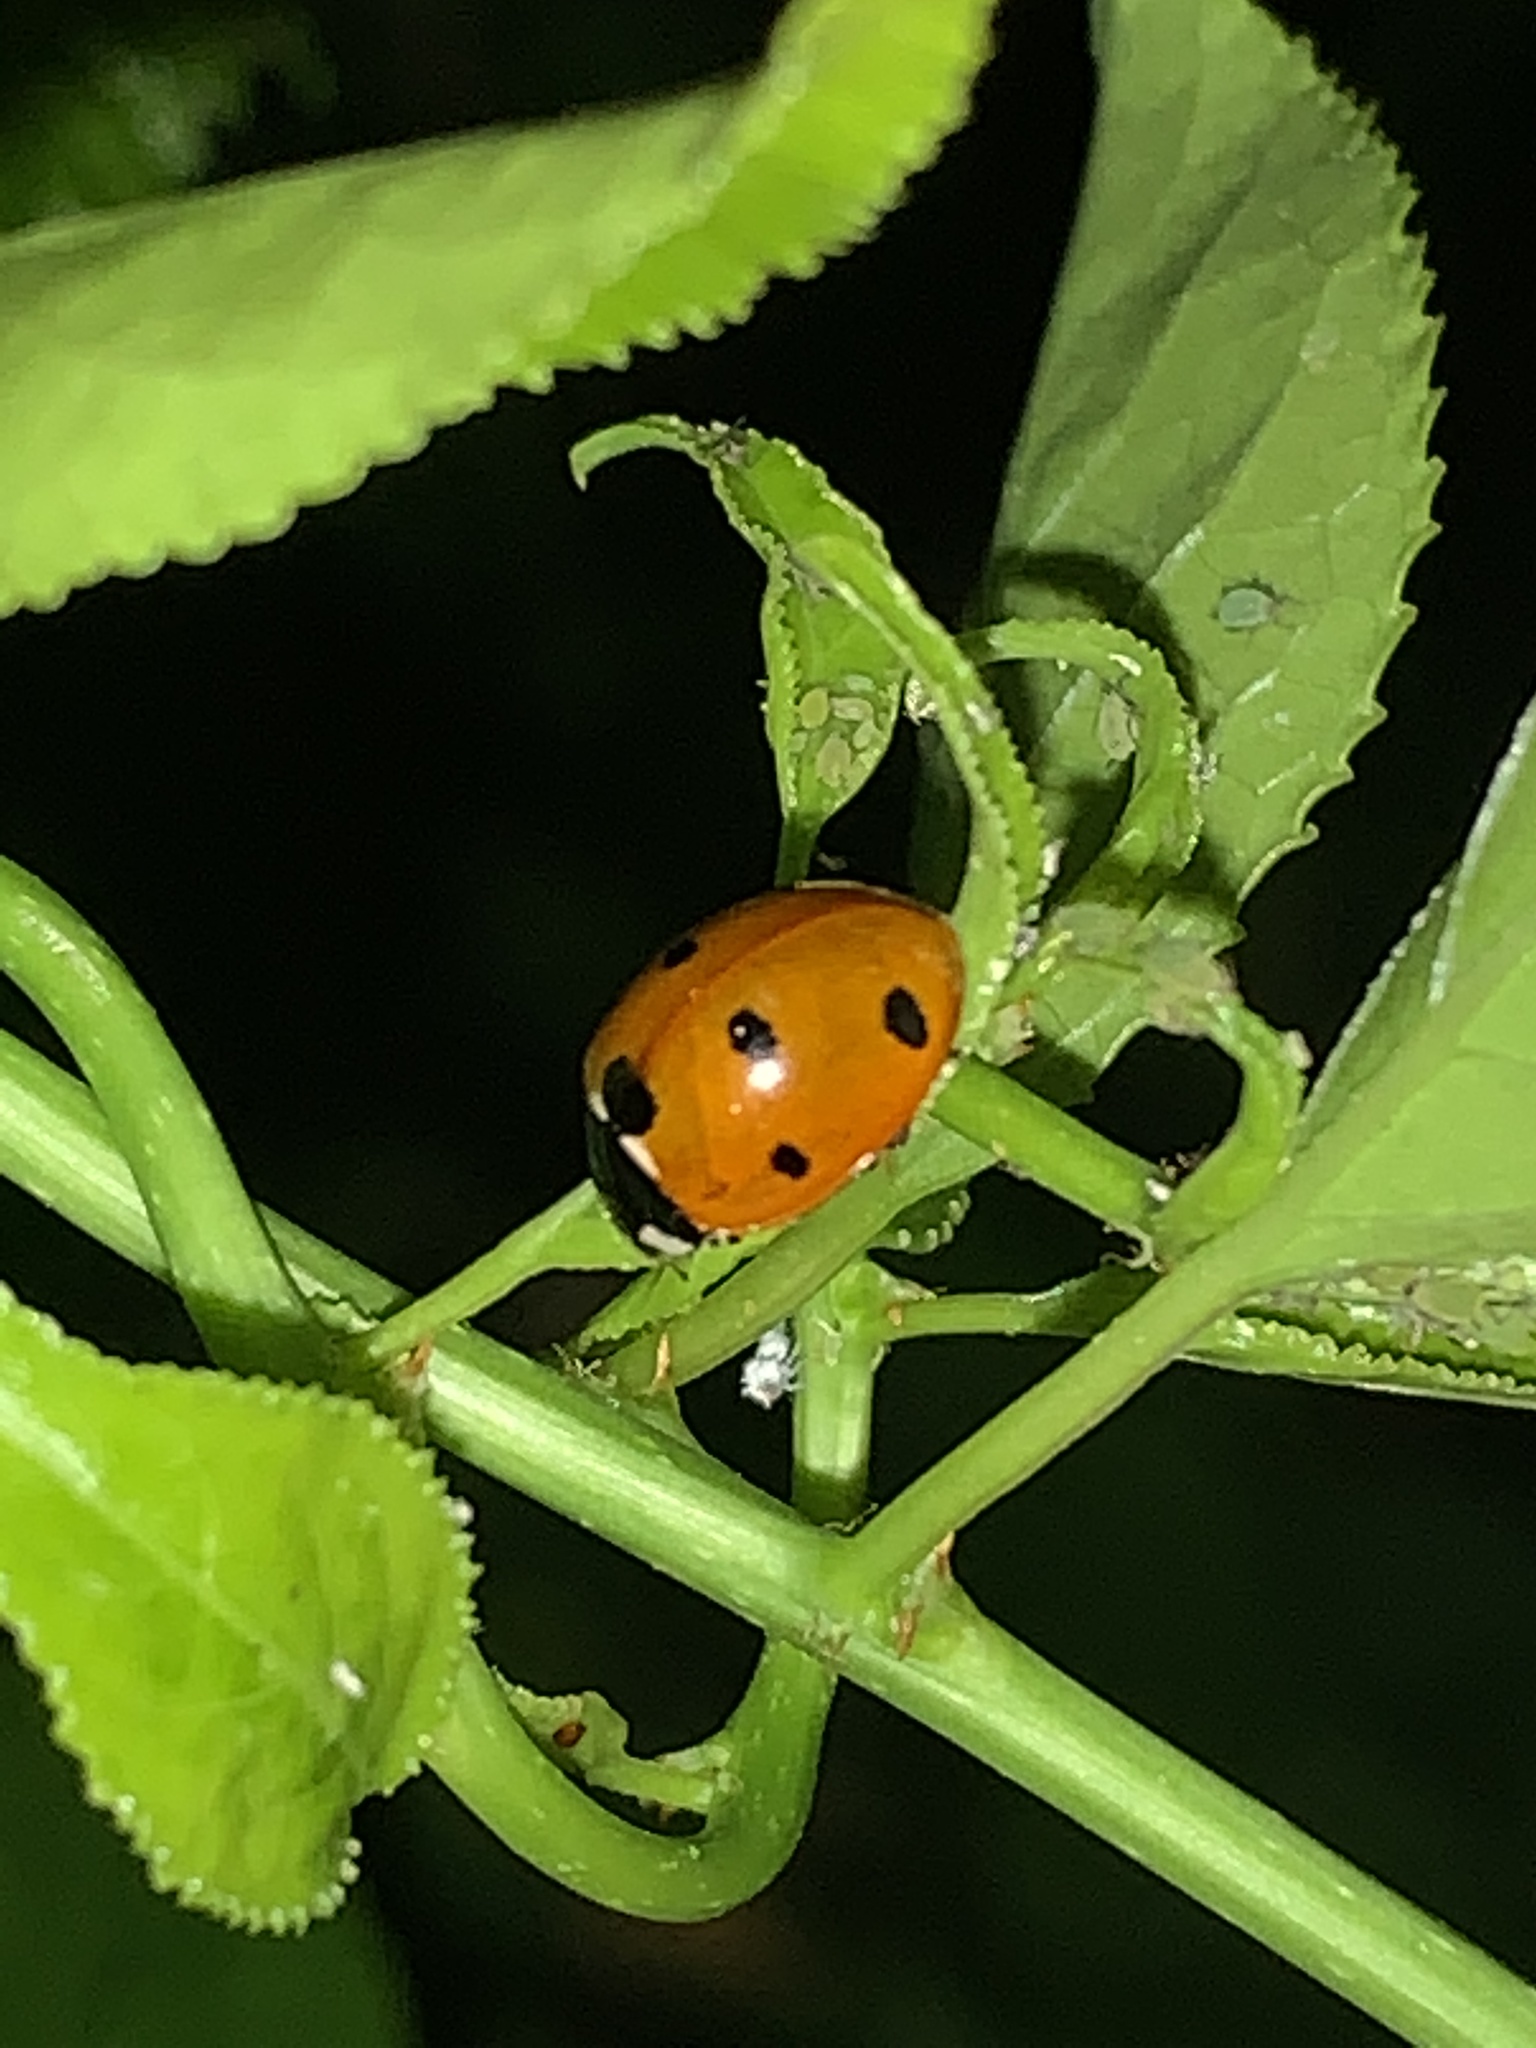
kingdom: Animalia
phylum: Arthropoda
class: Insecta
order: Coleoptera
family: Coccinellidae
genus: Coccinella
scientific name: Coccinella septempunctata
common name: Sevenspotted lady beetle
